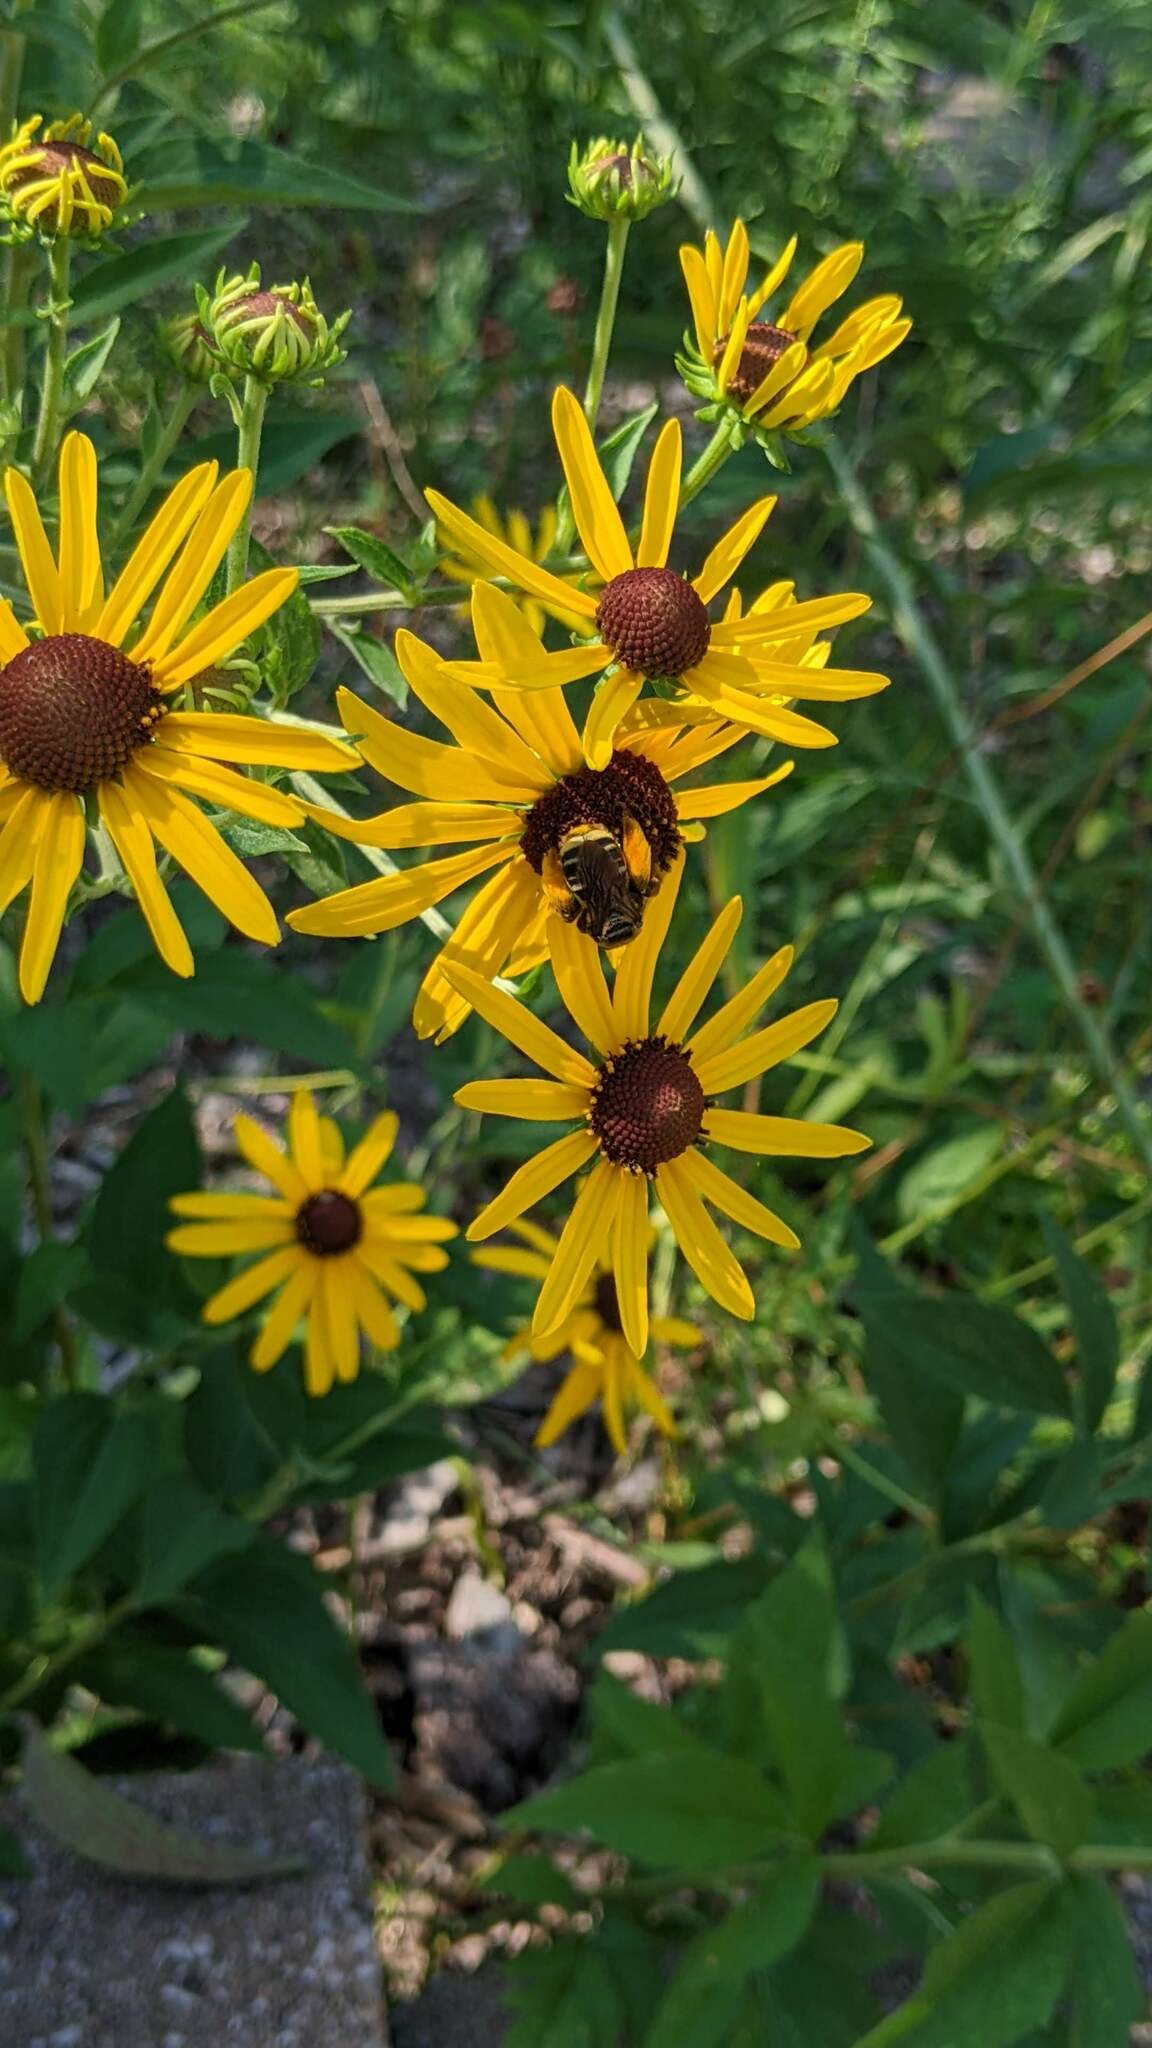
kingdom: Animalia
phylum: Arthropoda
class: Insecta
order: Hymenoptera
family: Apidae
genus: Svastra
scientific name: Svastra obliqua
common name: Oblique longhorn
